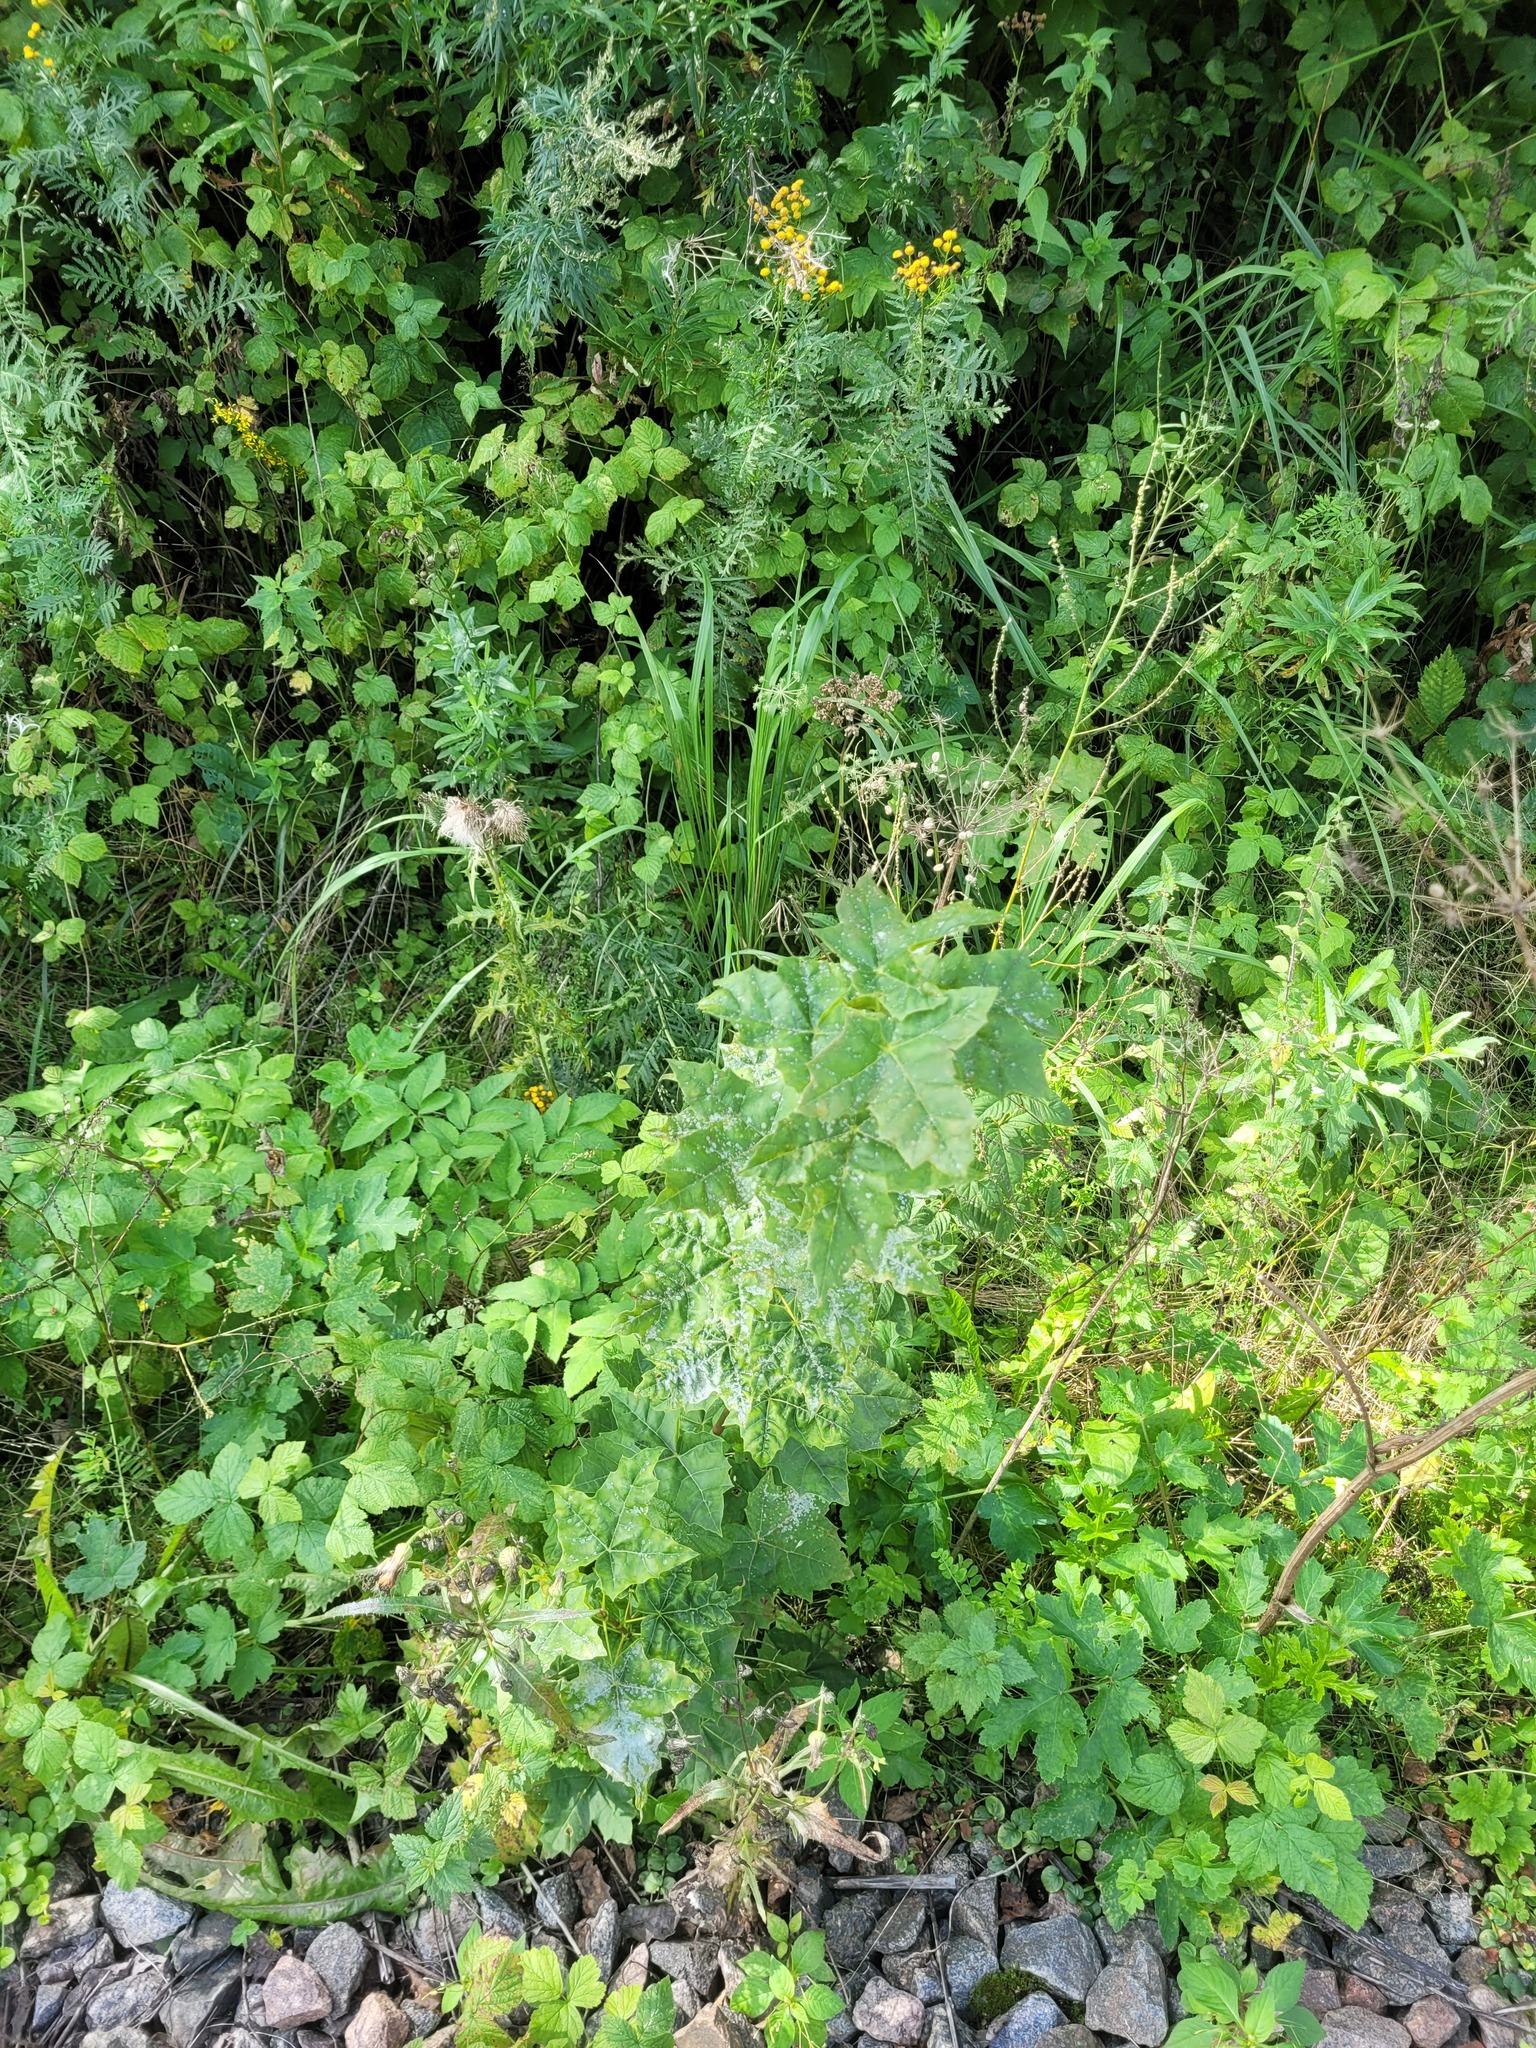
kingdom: Plantae
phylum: Tracheophyta
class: Magnoliopsida
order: Sapindales
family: Sapindaceae
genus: Acer
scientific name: Acer platanoides
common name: Norway maple
